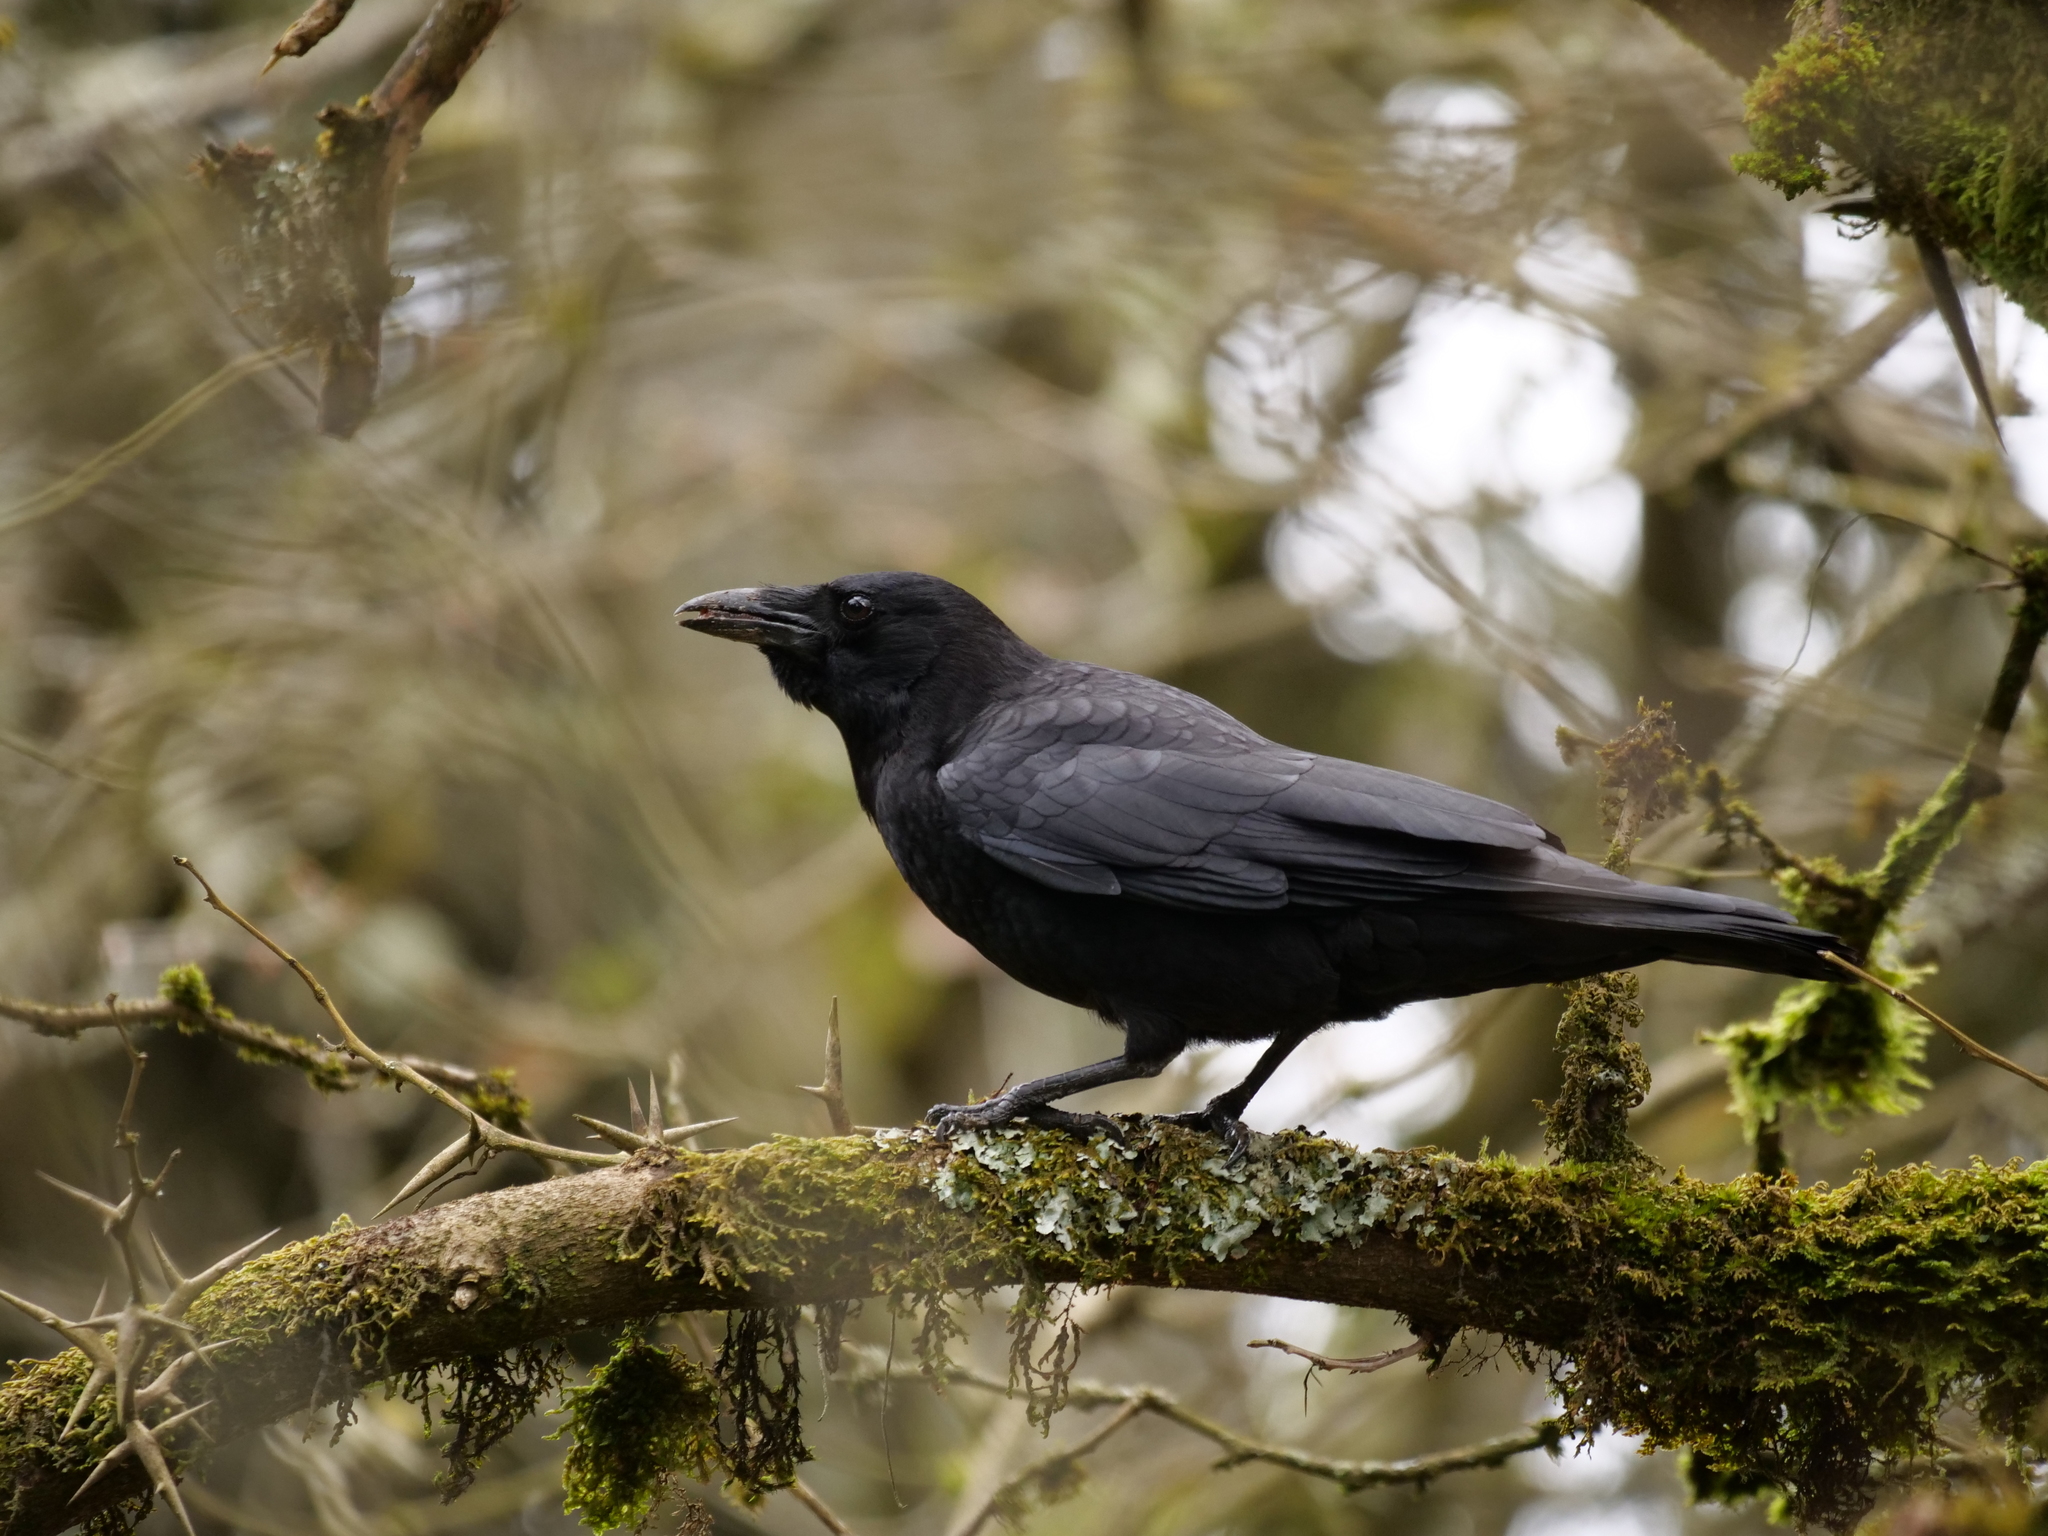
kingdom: Animalia
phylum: Chordata
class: Aves
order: Passeriformes
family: Corvidae
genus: Corvus
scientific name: Corvus brachyrhynchos
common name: American crow
